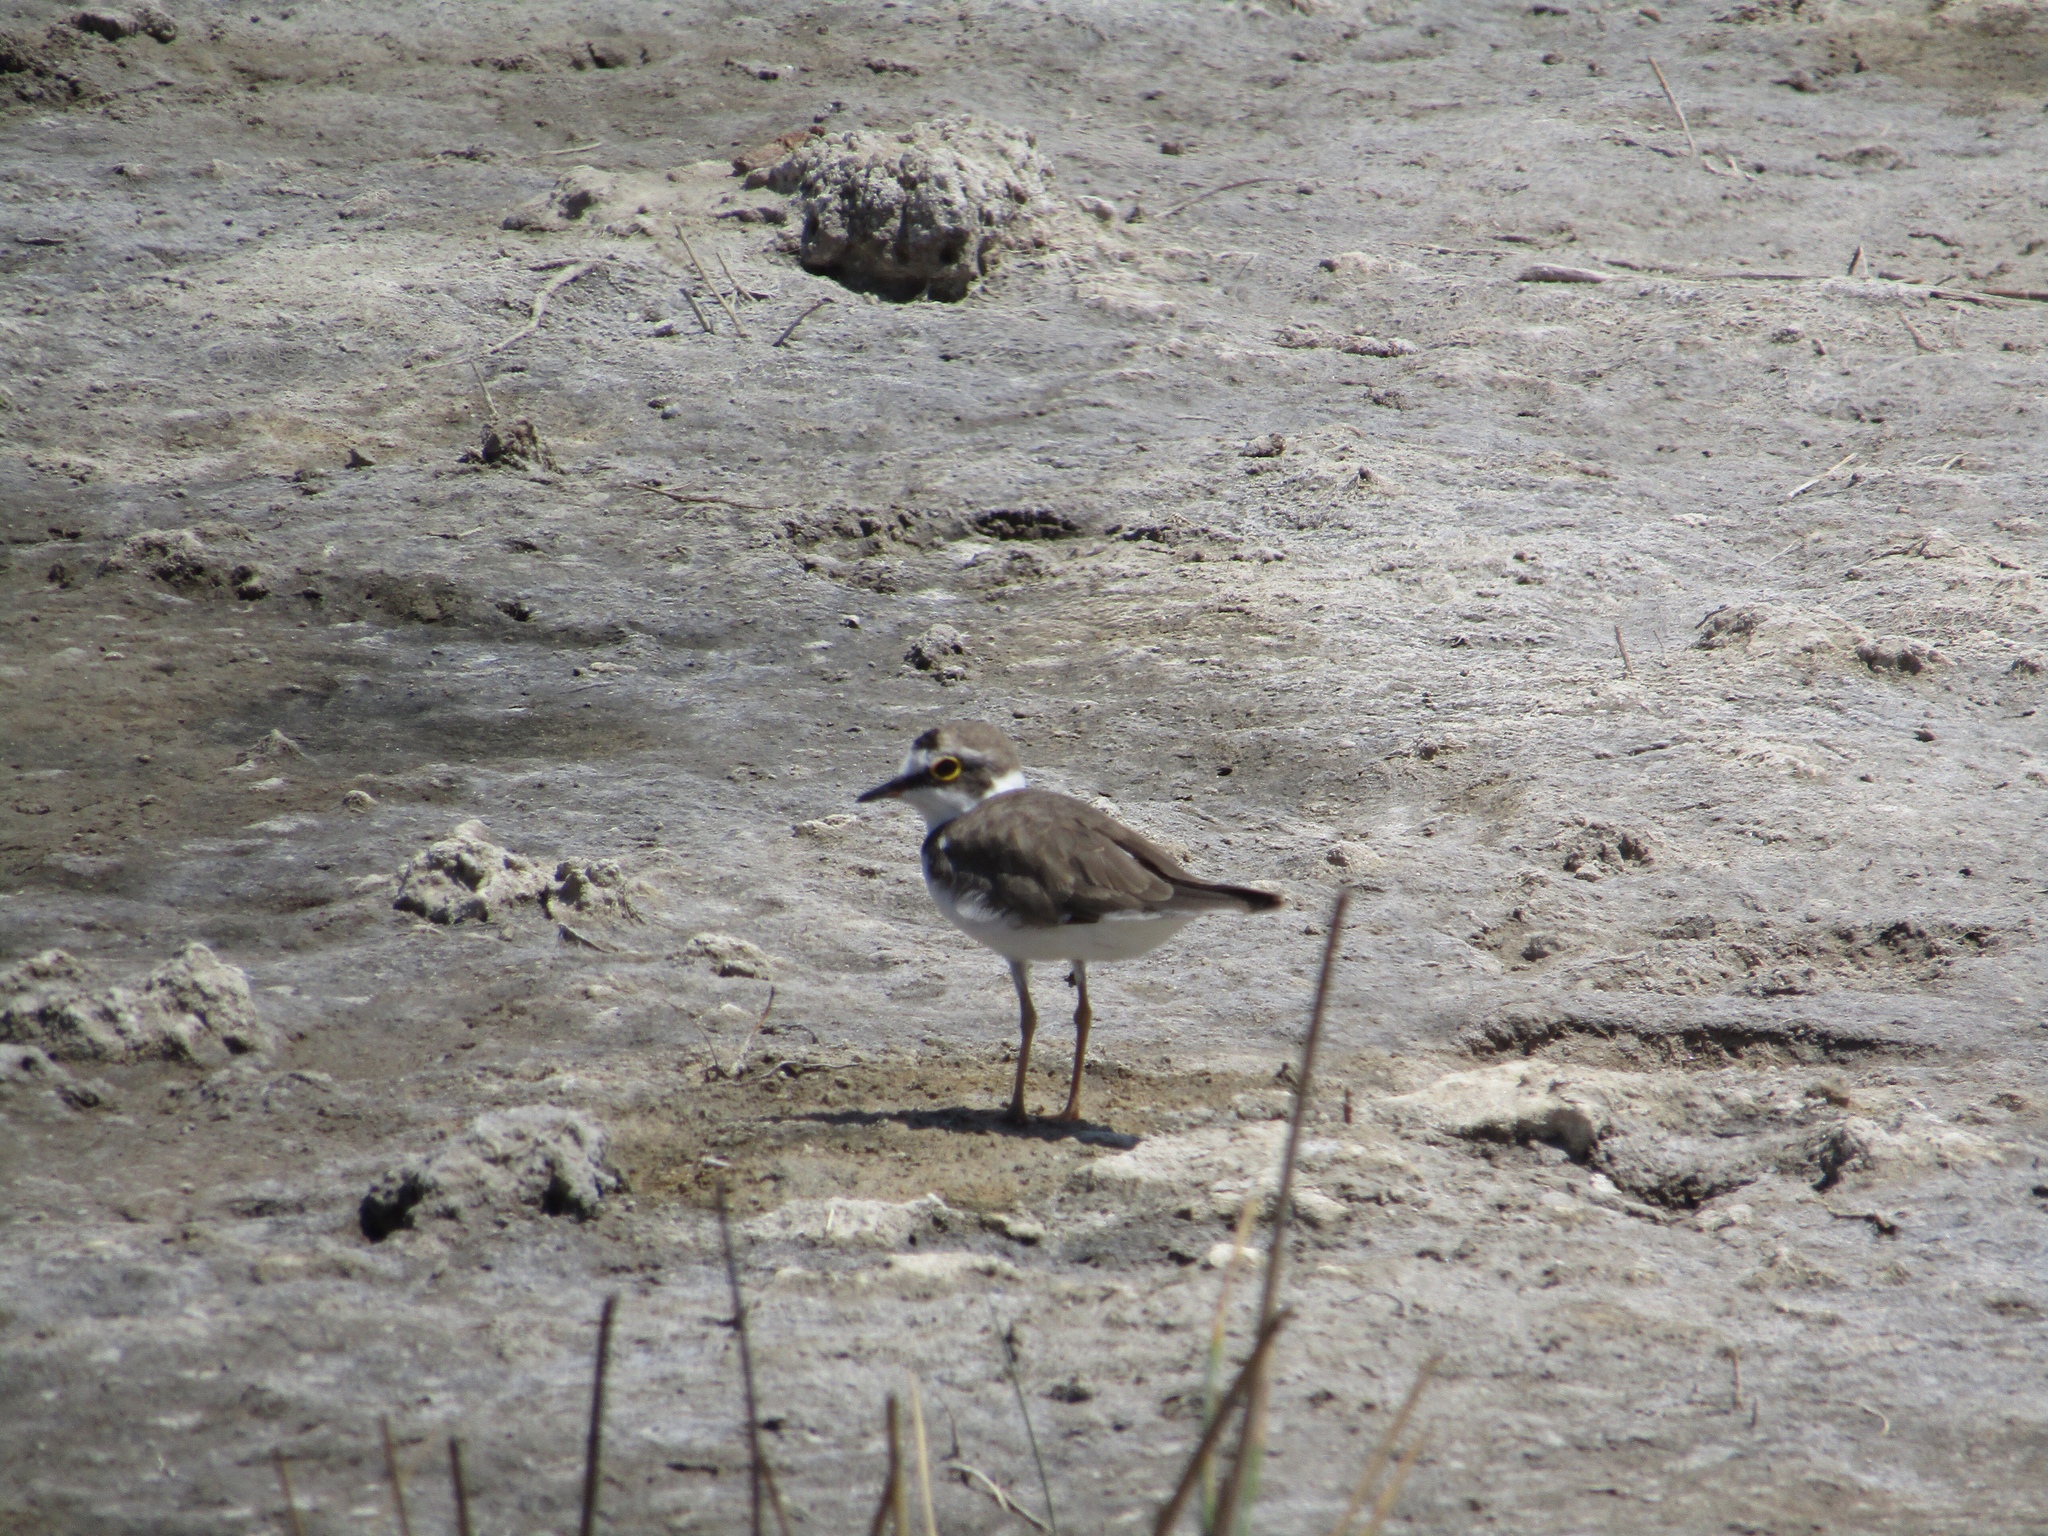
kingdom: Animalia
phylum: Chordata
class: Aves
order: Charadriiformes
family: Charadriidae
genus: Charadrius
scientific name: Charadrius dubius
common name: Little ringed plover
